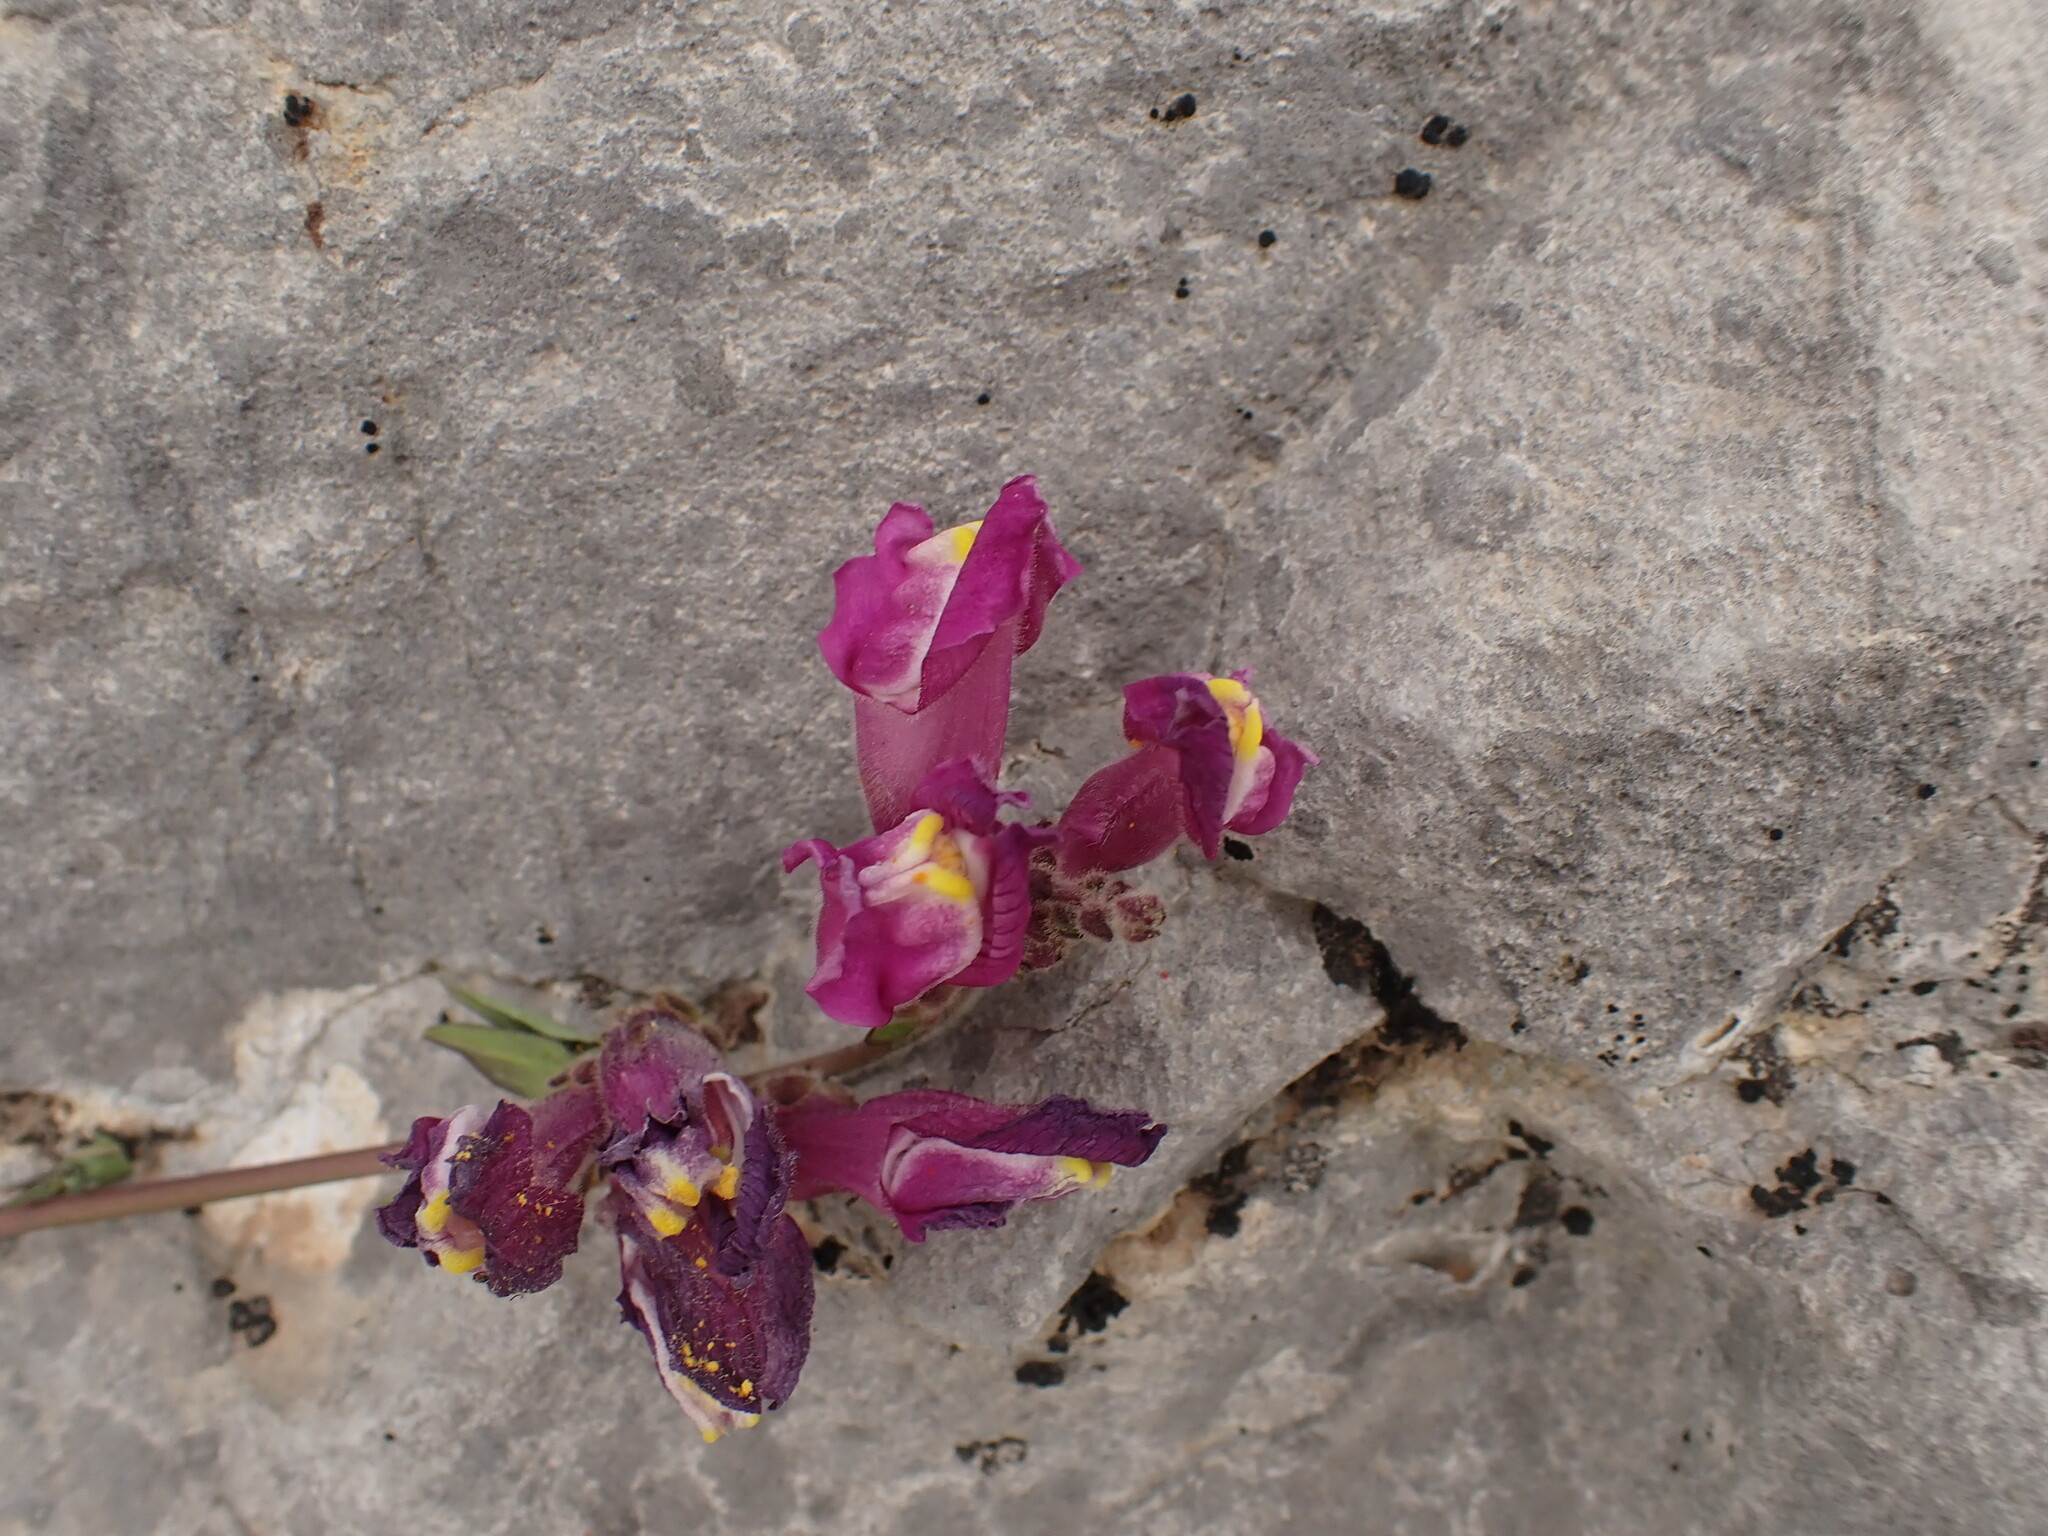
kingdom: Plantae
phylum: Tracheophyta
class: Magnoliopsida
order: Lamiales
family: Plantaginaceae
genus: Antirrhinum
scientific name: Antirrhinum majus
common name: Snapdragon
